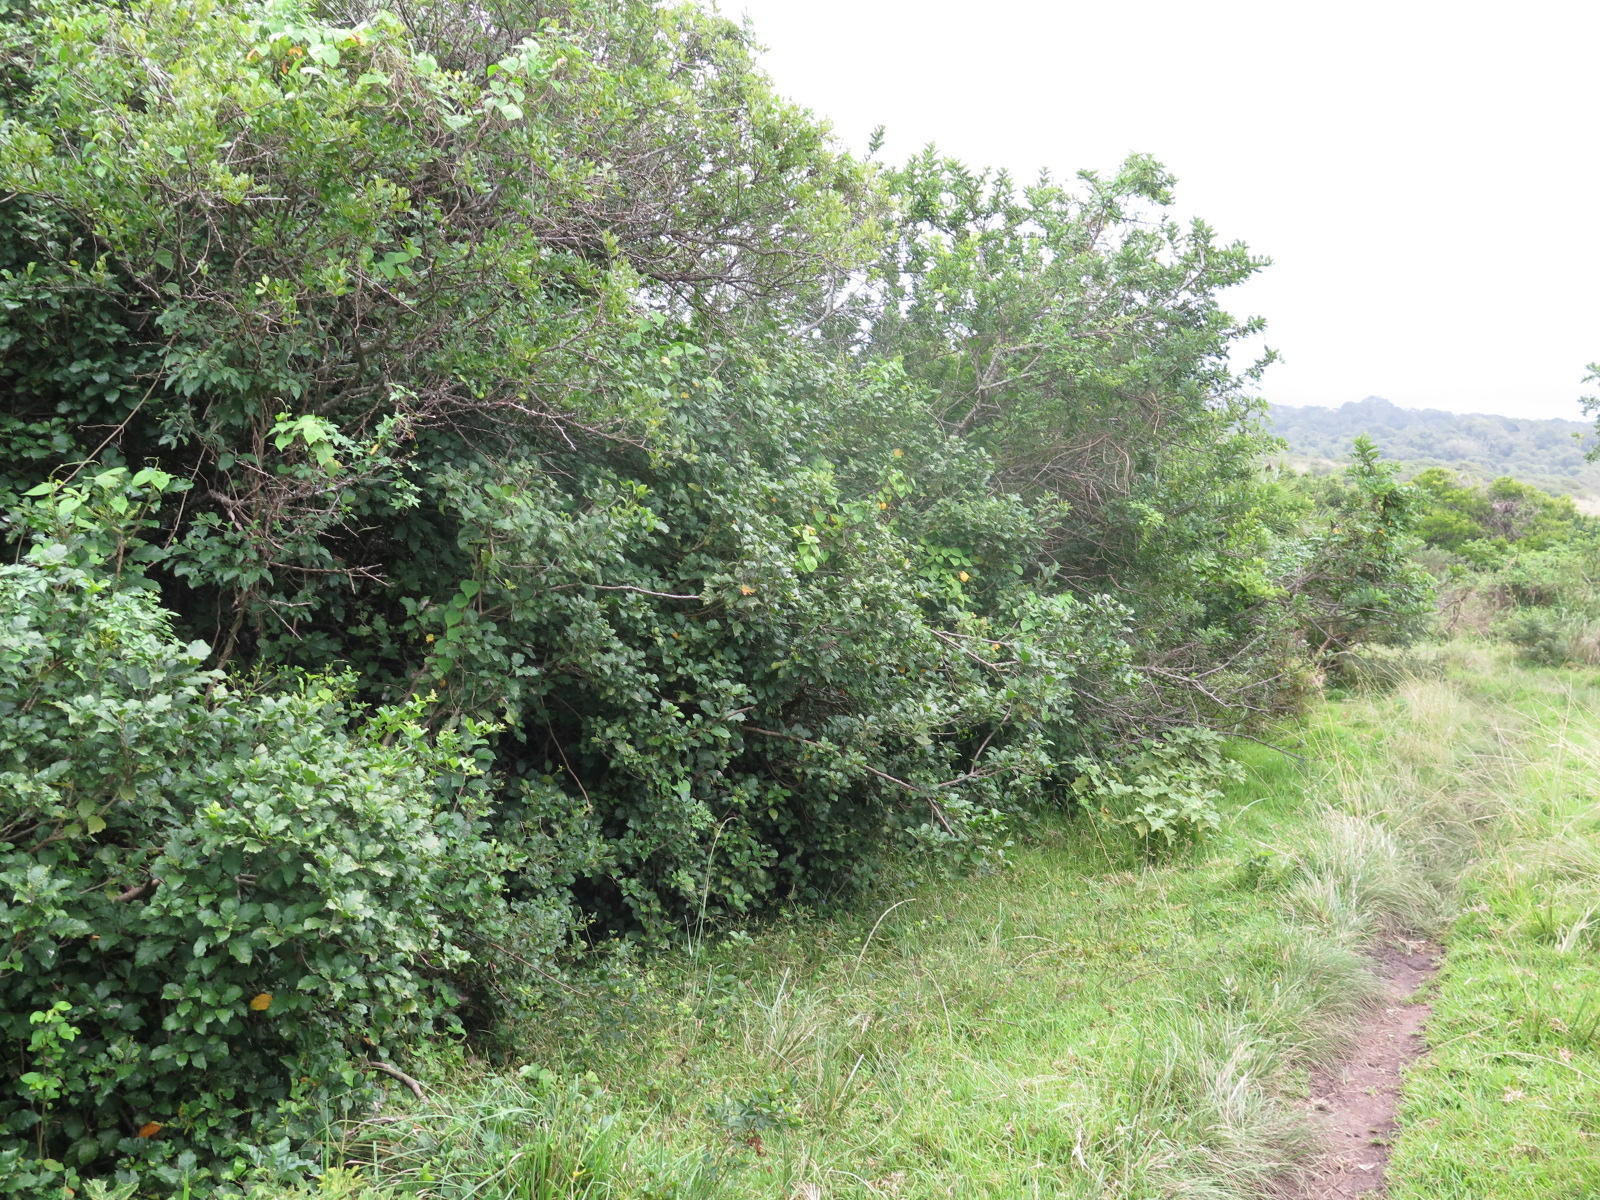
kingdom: Plantae
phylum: Tracheophyta
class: Magnoliopsida
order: Sapindales
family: Rutaceae
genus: Zanthoxylum
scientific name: Zanthoxylum davyi
